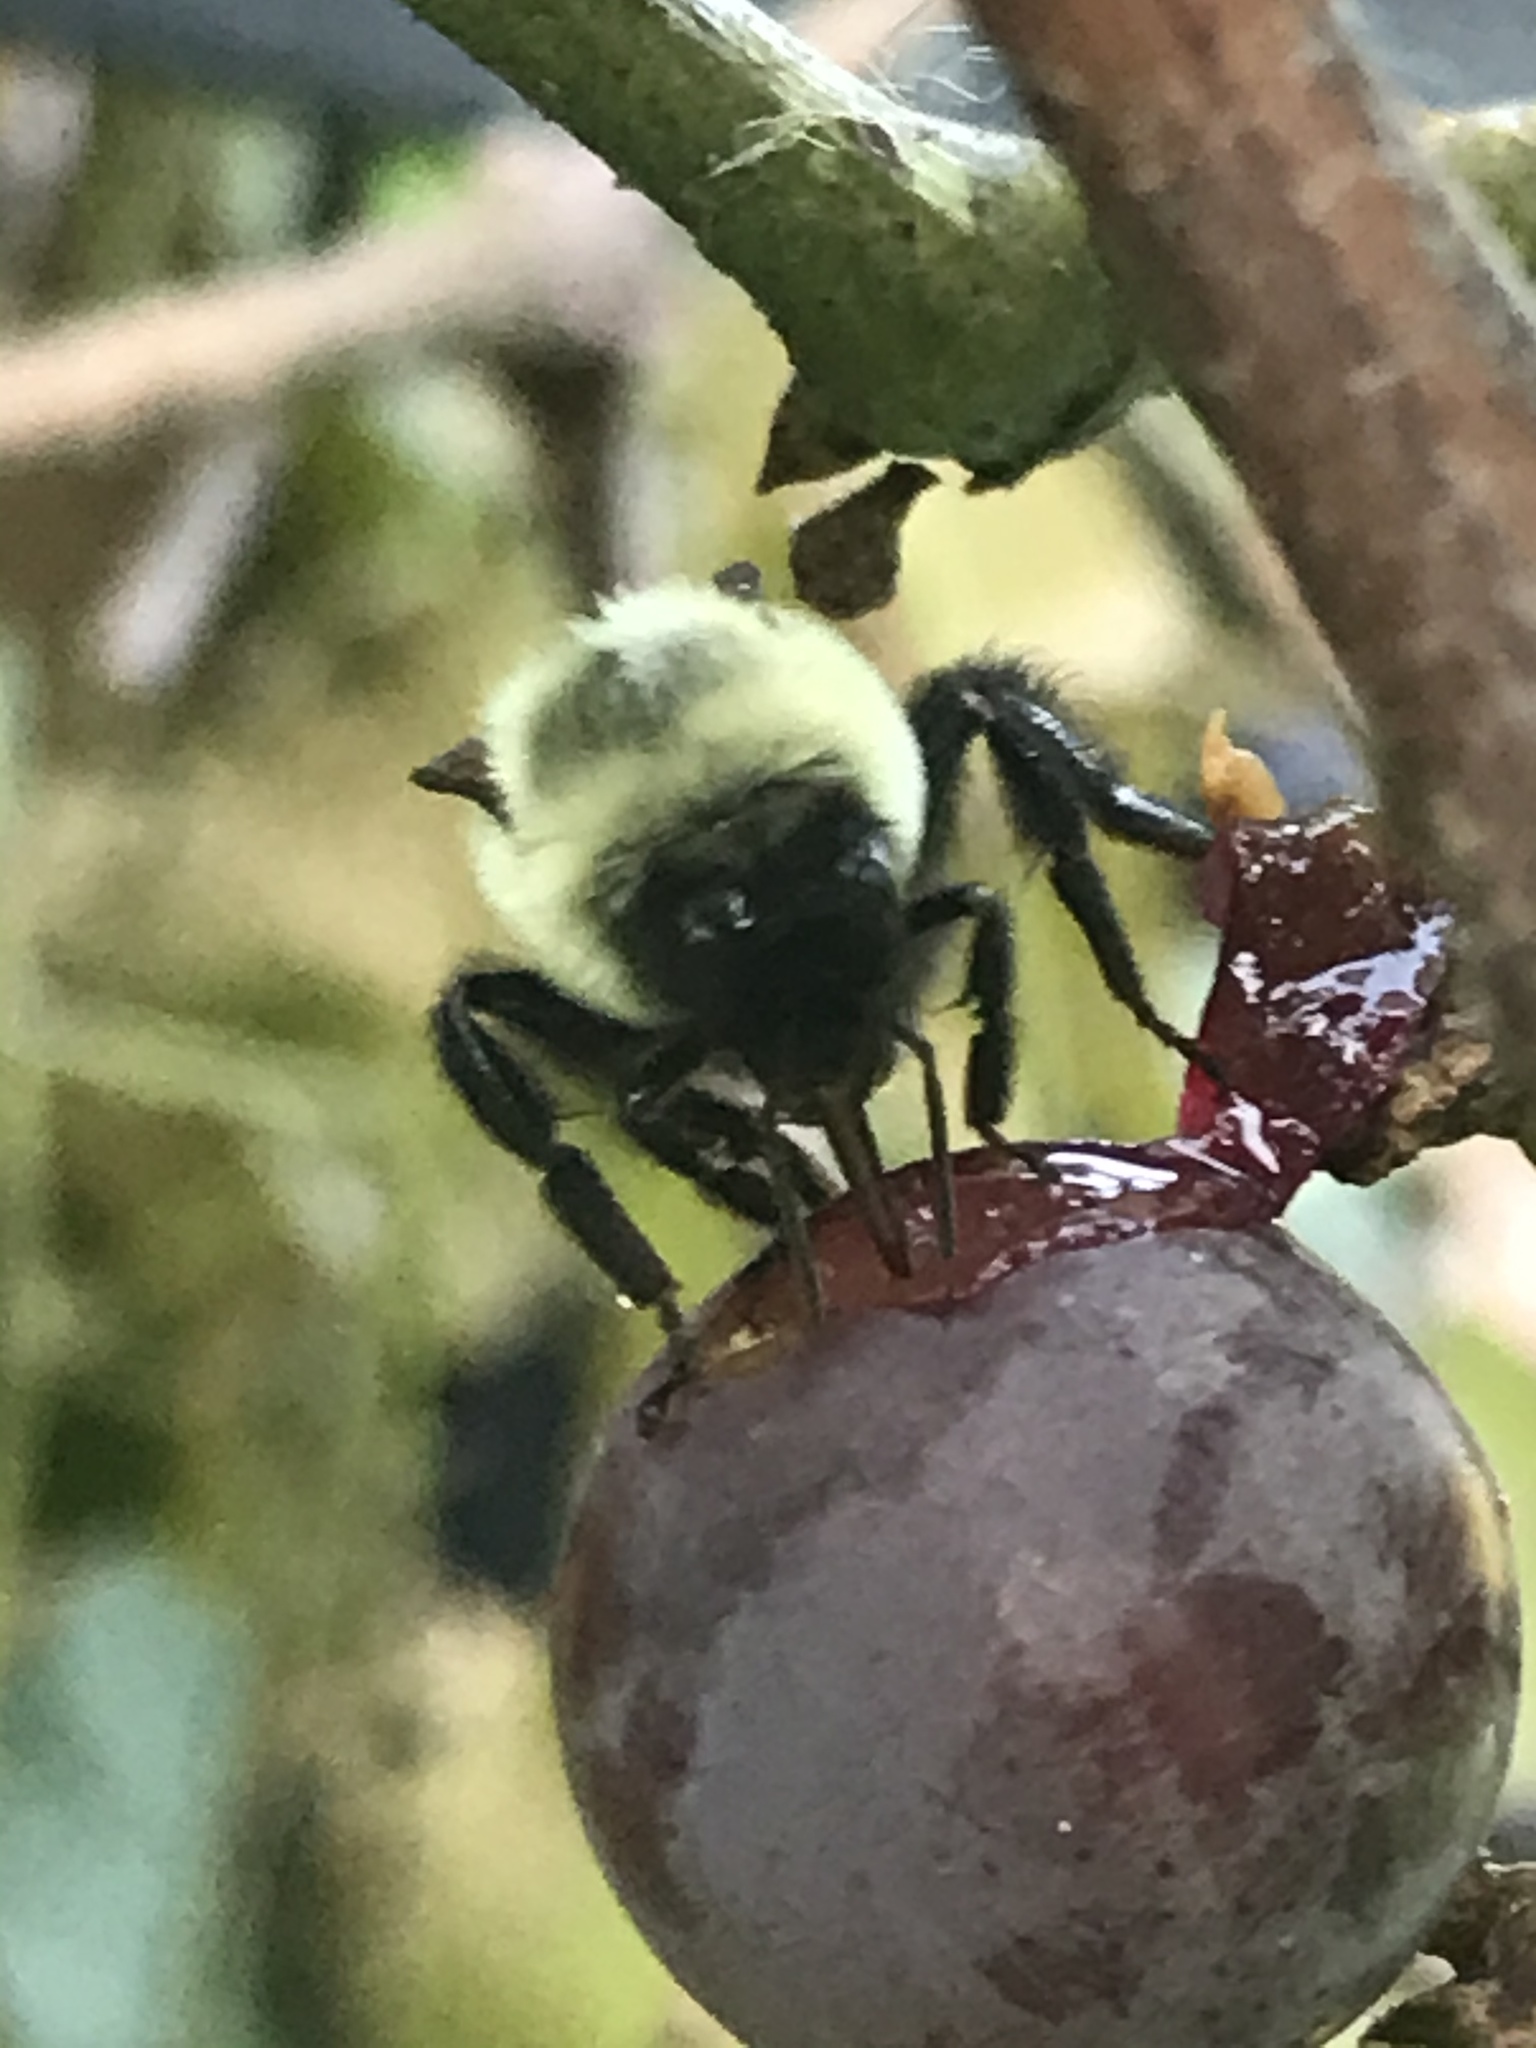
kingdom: Animalia
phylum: Arthropoda
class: Insecta
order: Hymenoptera
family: Apidae
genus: Bombus
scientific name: Bombus impatiens
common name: Common eastern bumble bee
